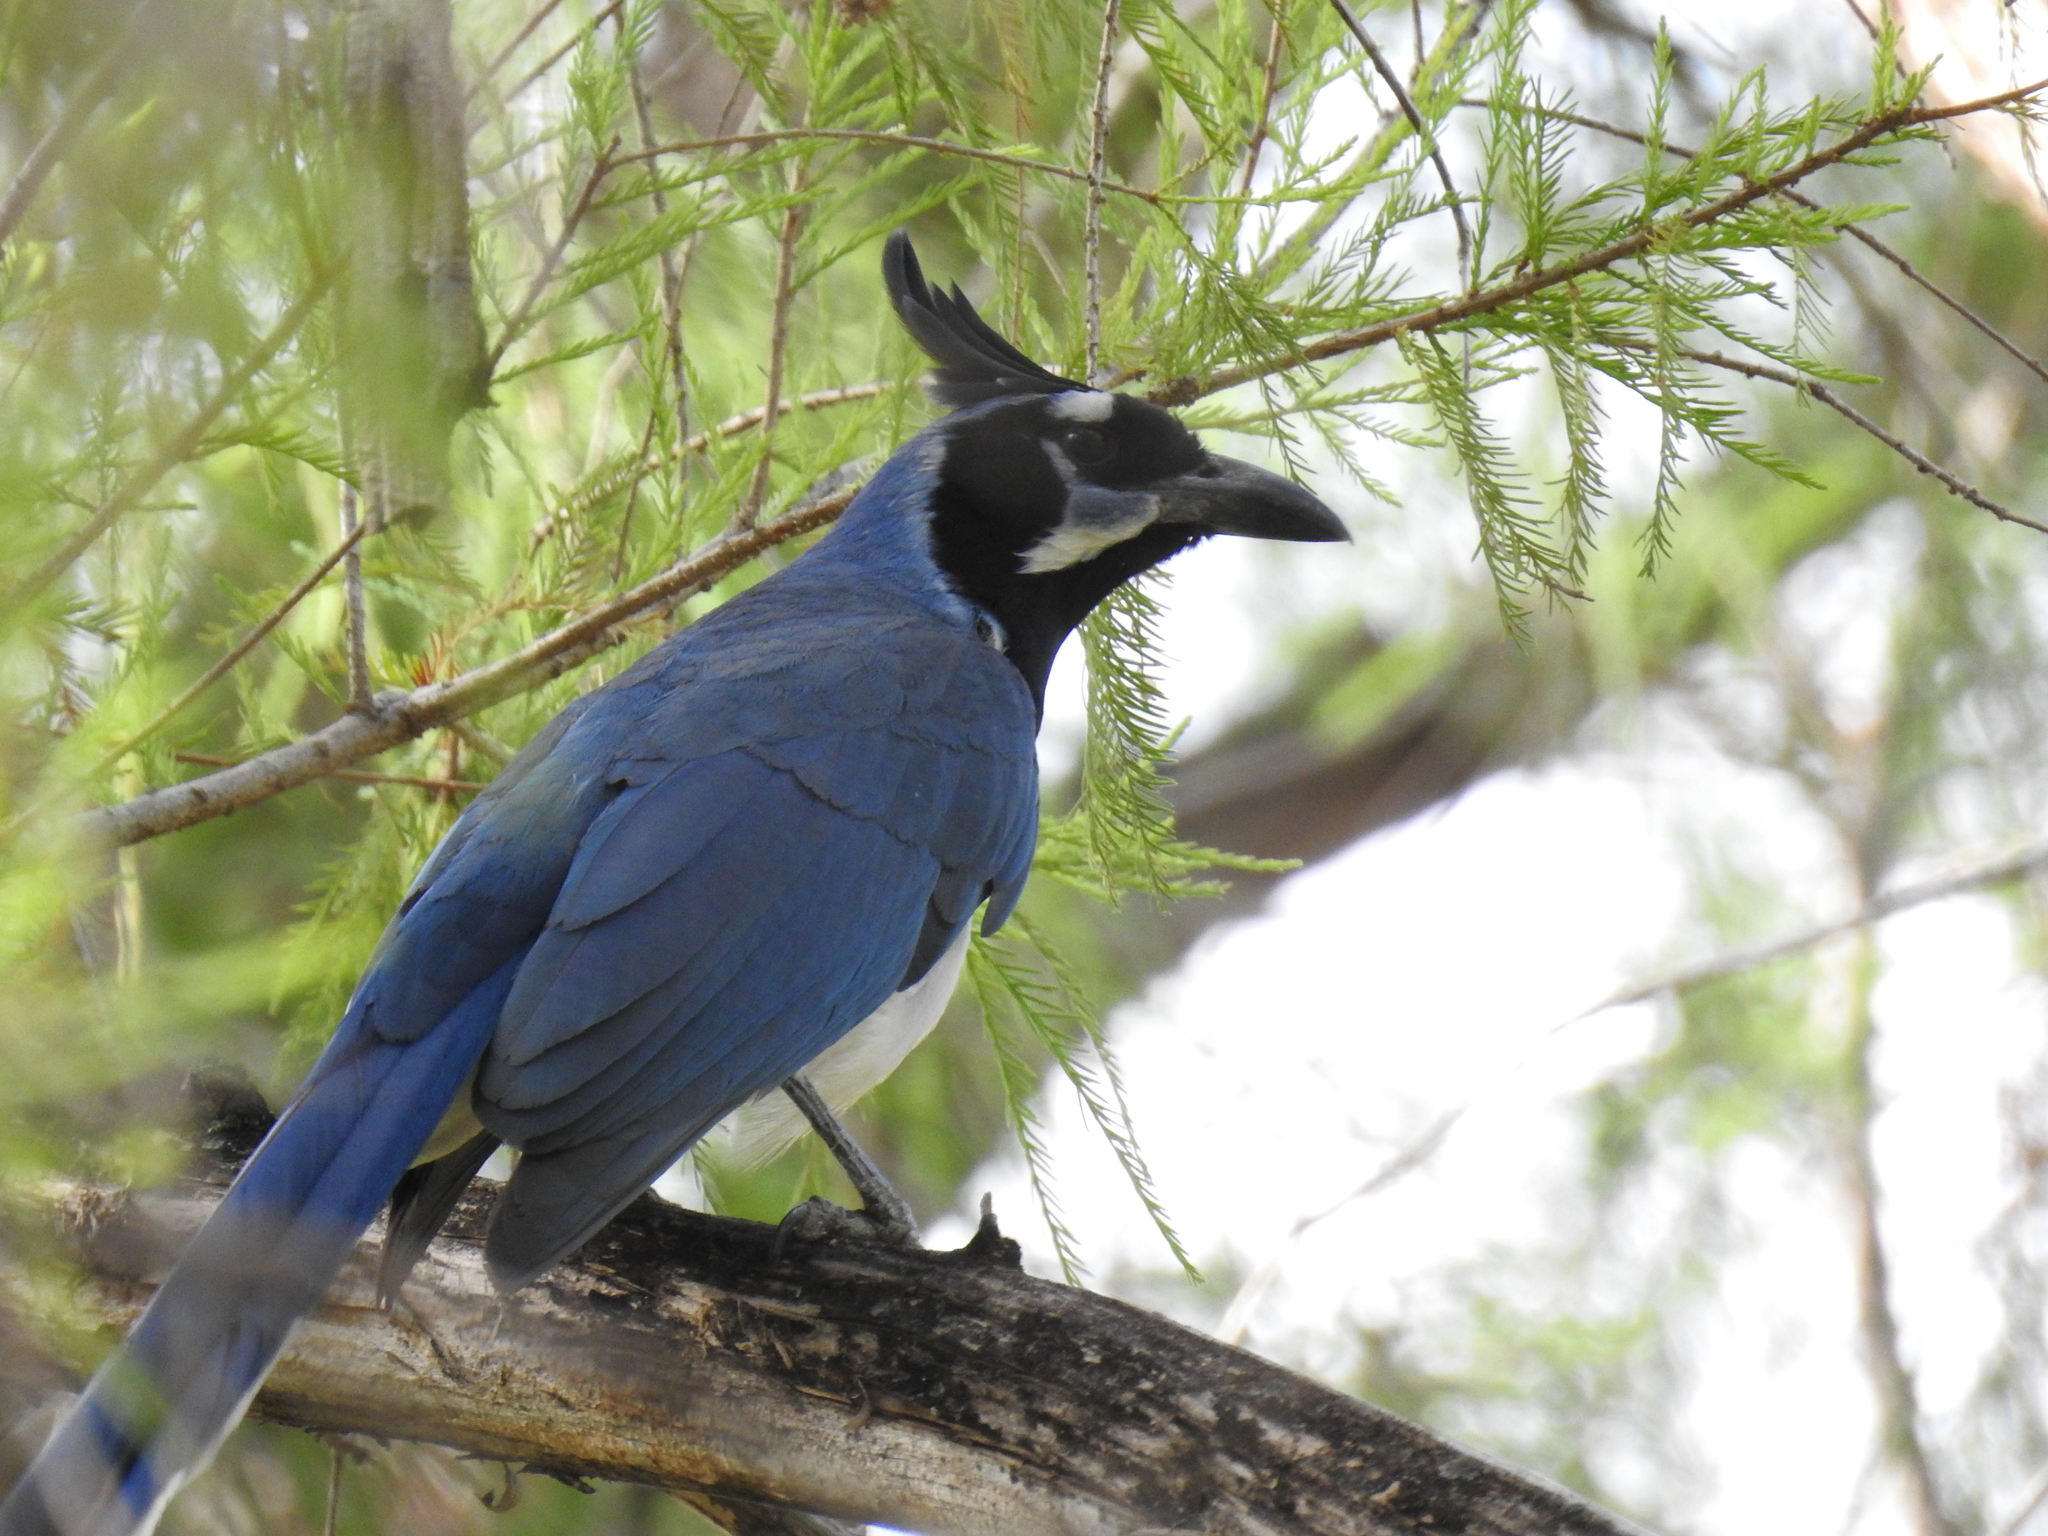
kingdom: Animalia
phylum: Chordata
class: Aves
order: Passeriformes
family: Corvidae
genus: Calocitta
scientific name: Calocitta colliei
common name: Black-throated magpie-jay
